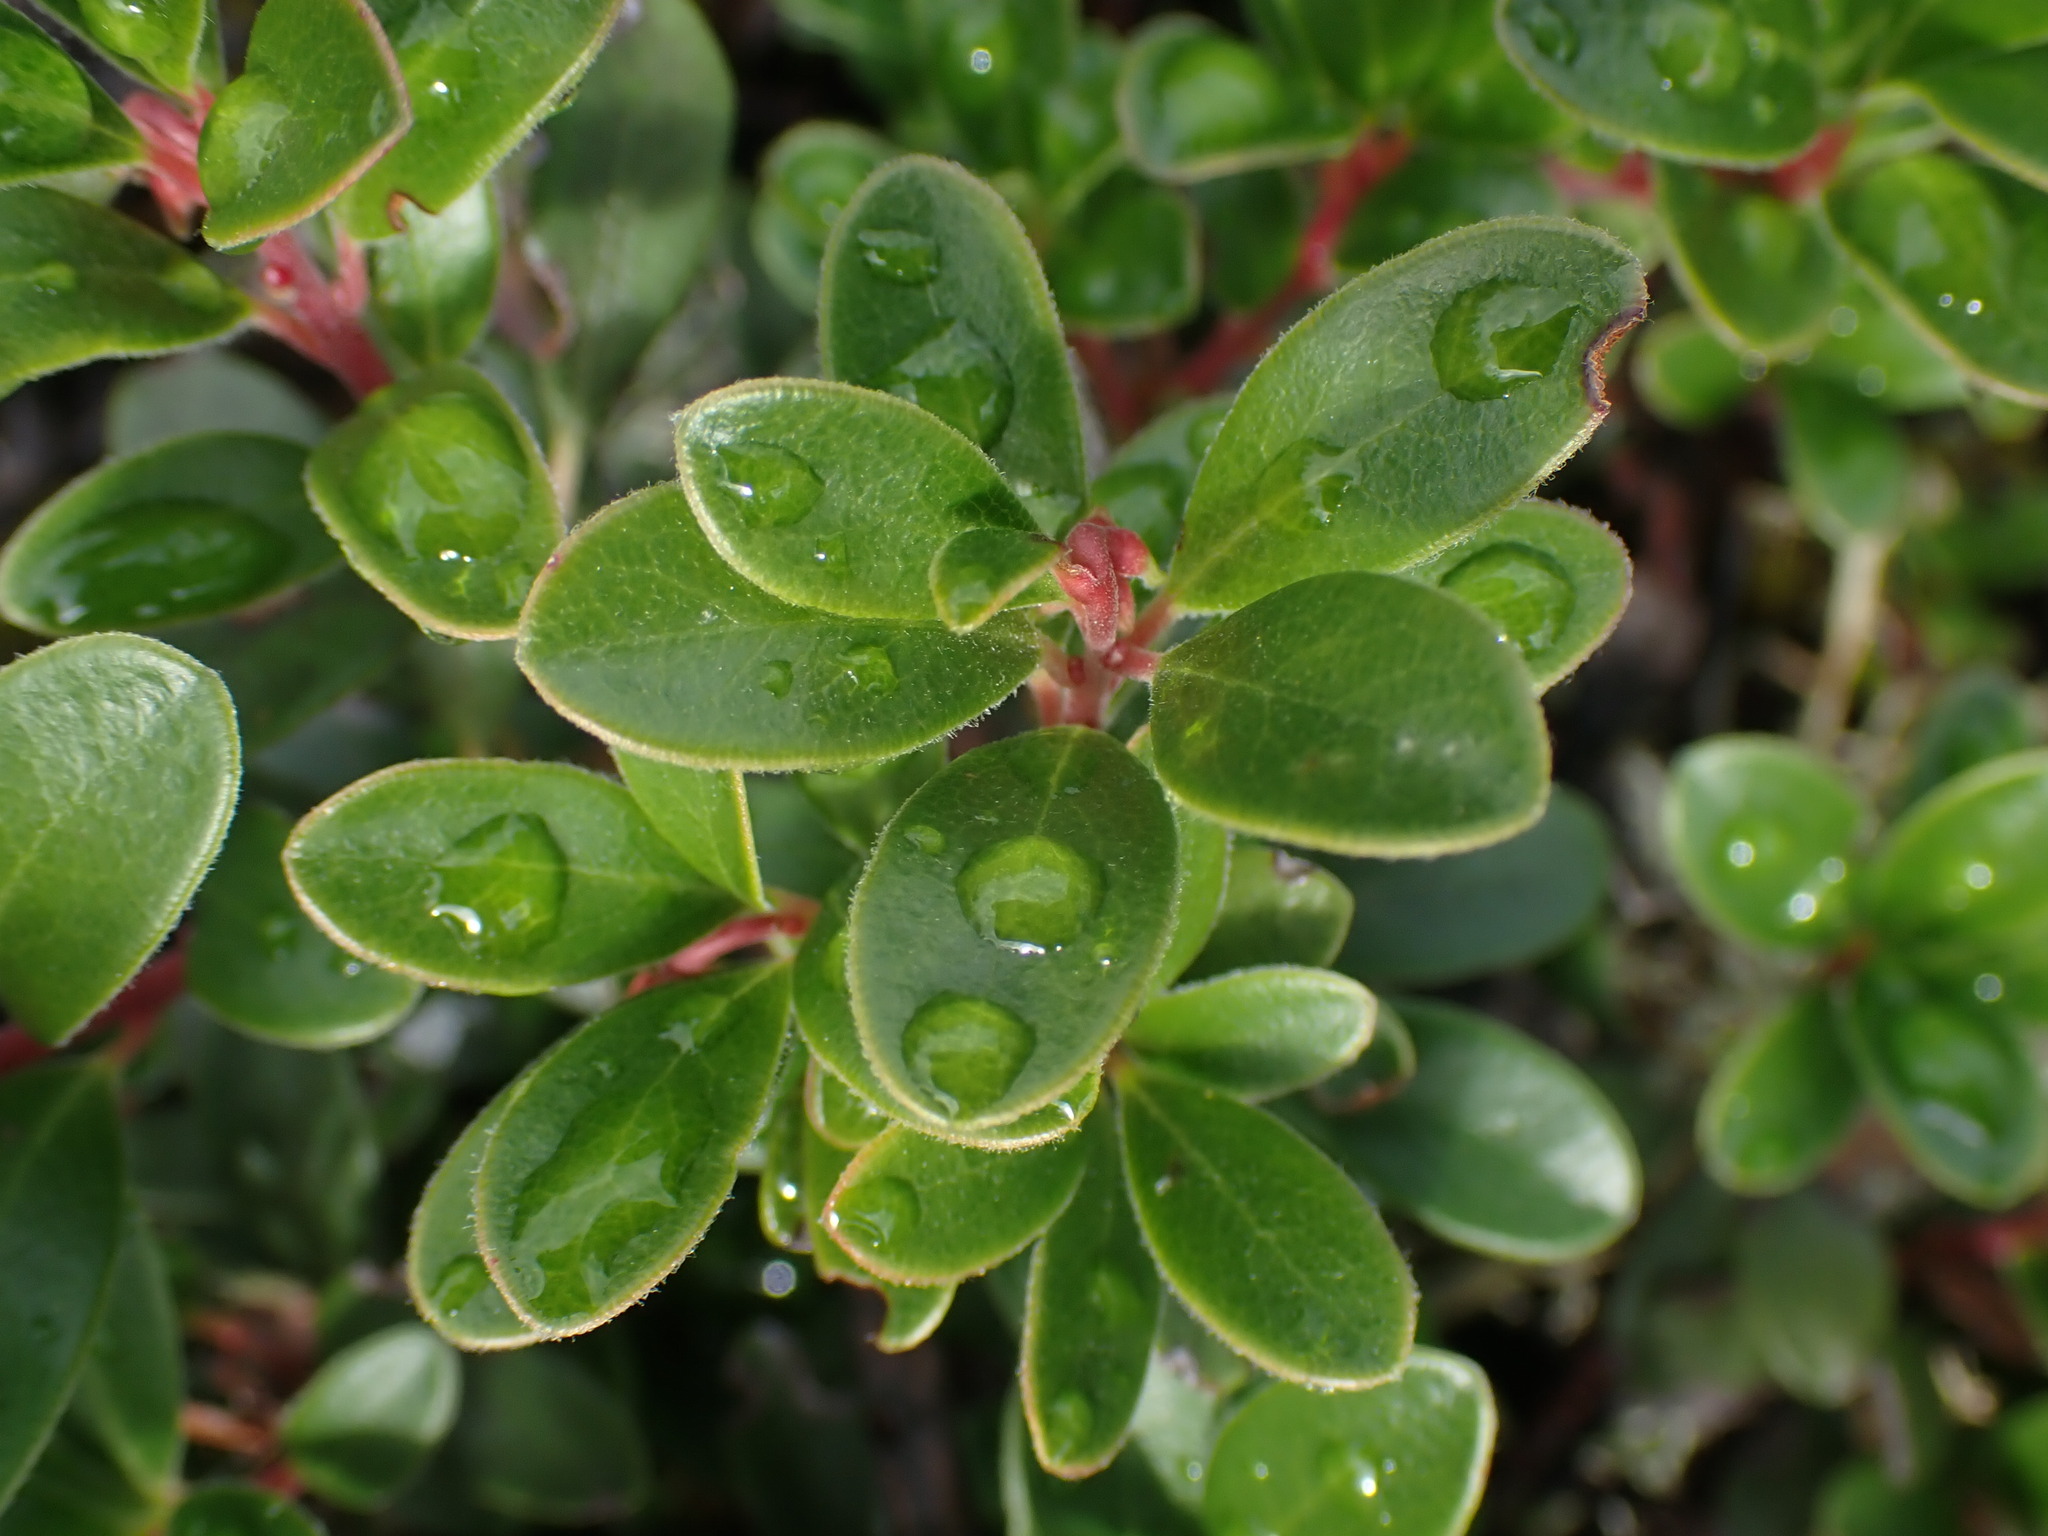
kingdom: Plantae
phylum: Tracheophyta
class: Magnoliopsida
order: Ericales
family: Ericaceae
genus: Arctostaphylos
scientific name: Arctostaphylos uva-ursi
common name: Bearberry
